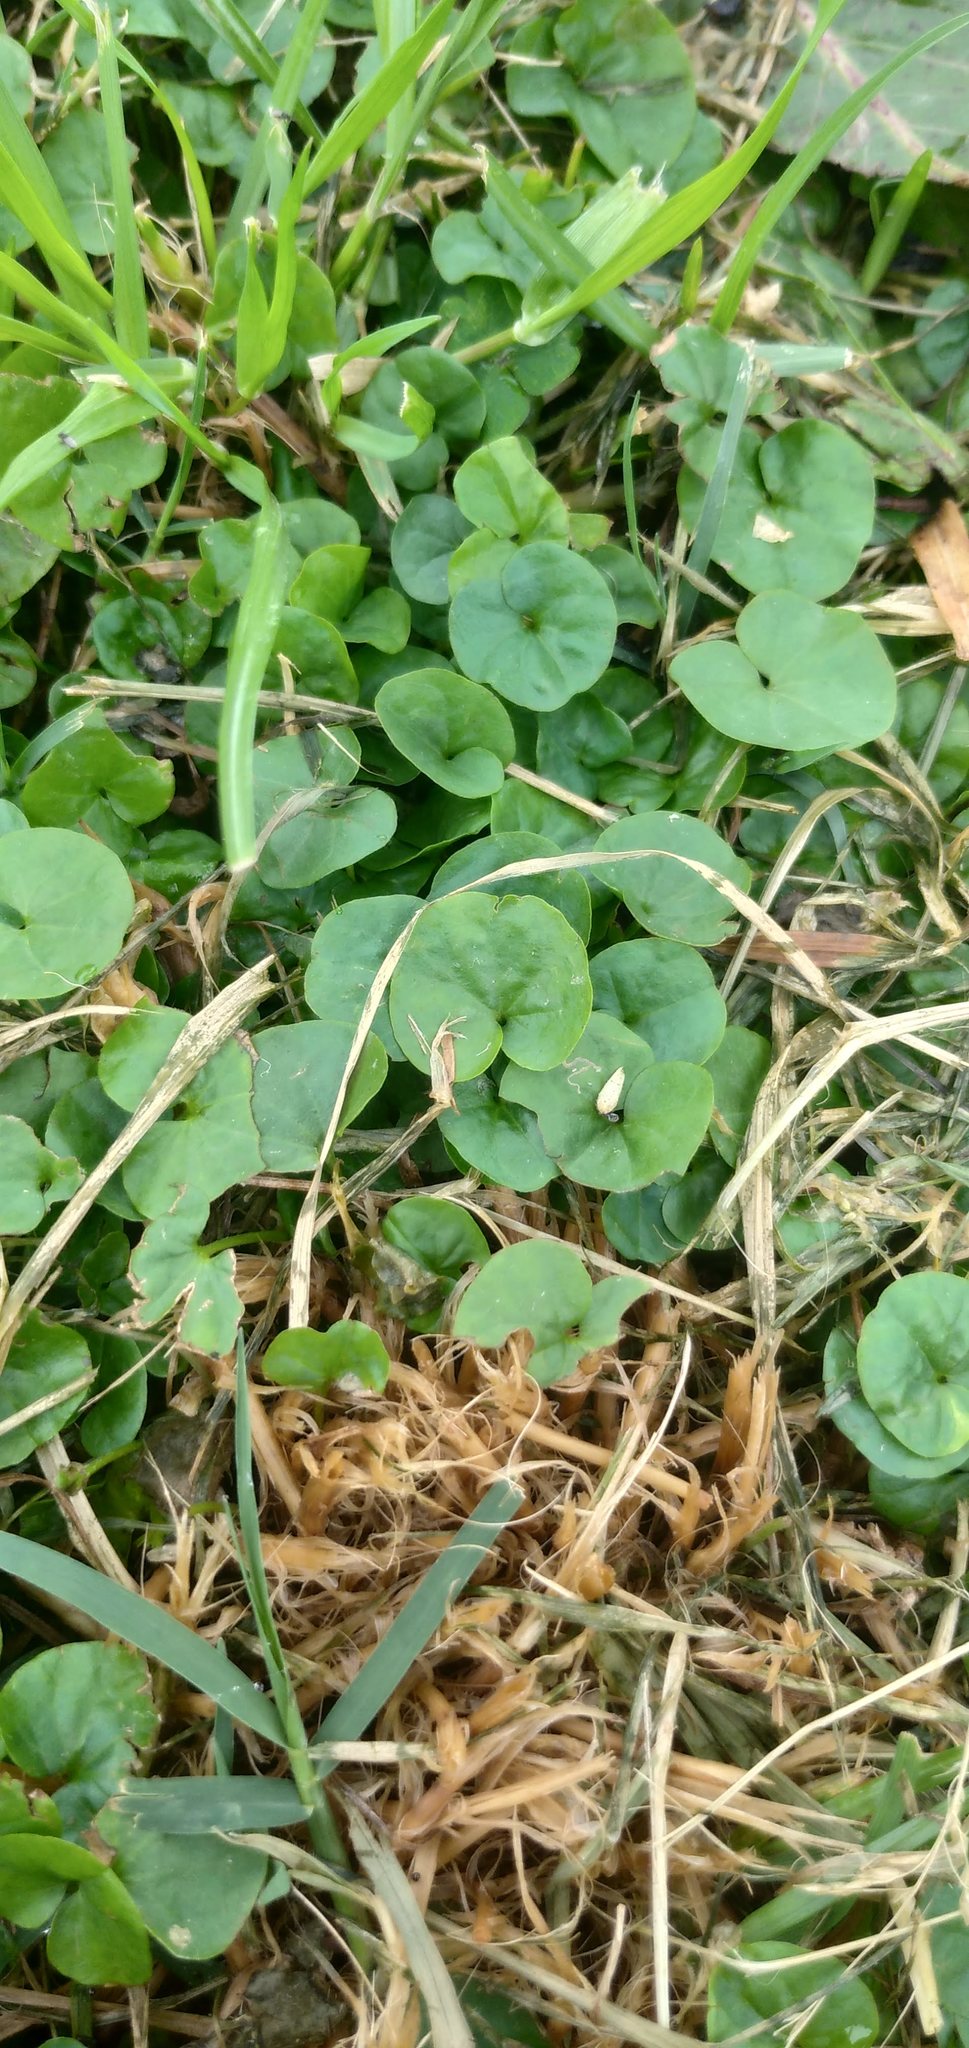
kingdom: Plantae
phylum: Tracheophyta
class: Magnoliopsida
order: Solanales
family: Convolvulaceae
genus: Dichondra
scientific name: Dichondra microcalyx
